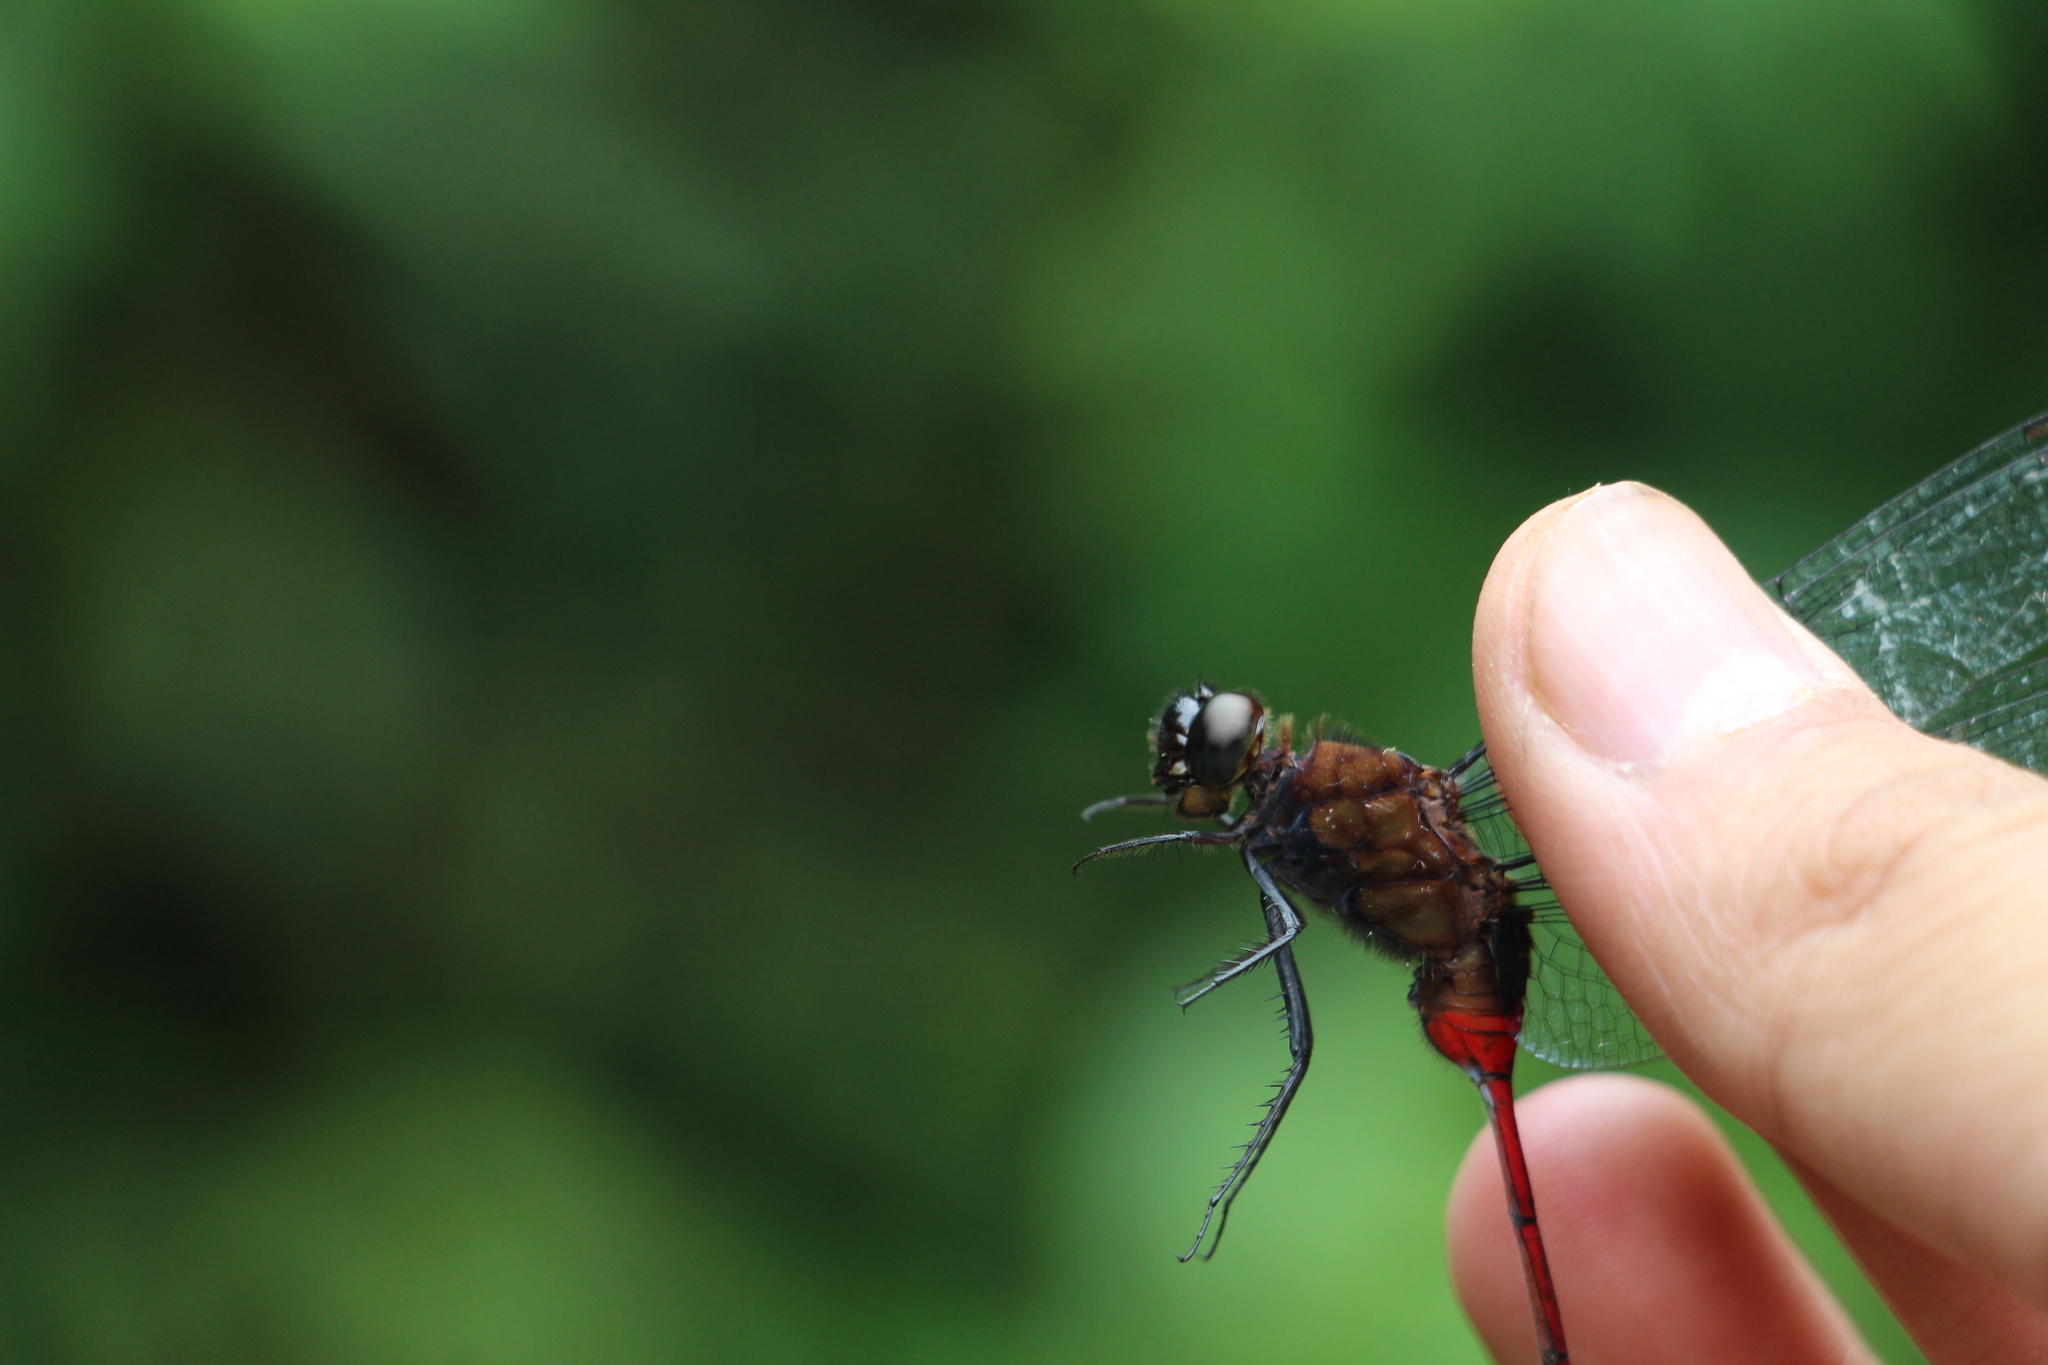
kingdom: Animalia
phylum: Arthropoda
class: Insecta
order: Odonata
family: Libellulidae
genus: Erythemis
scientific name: Erythemis haematogastra
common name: Red pondhawk
